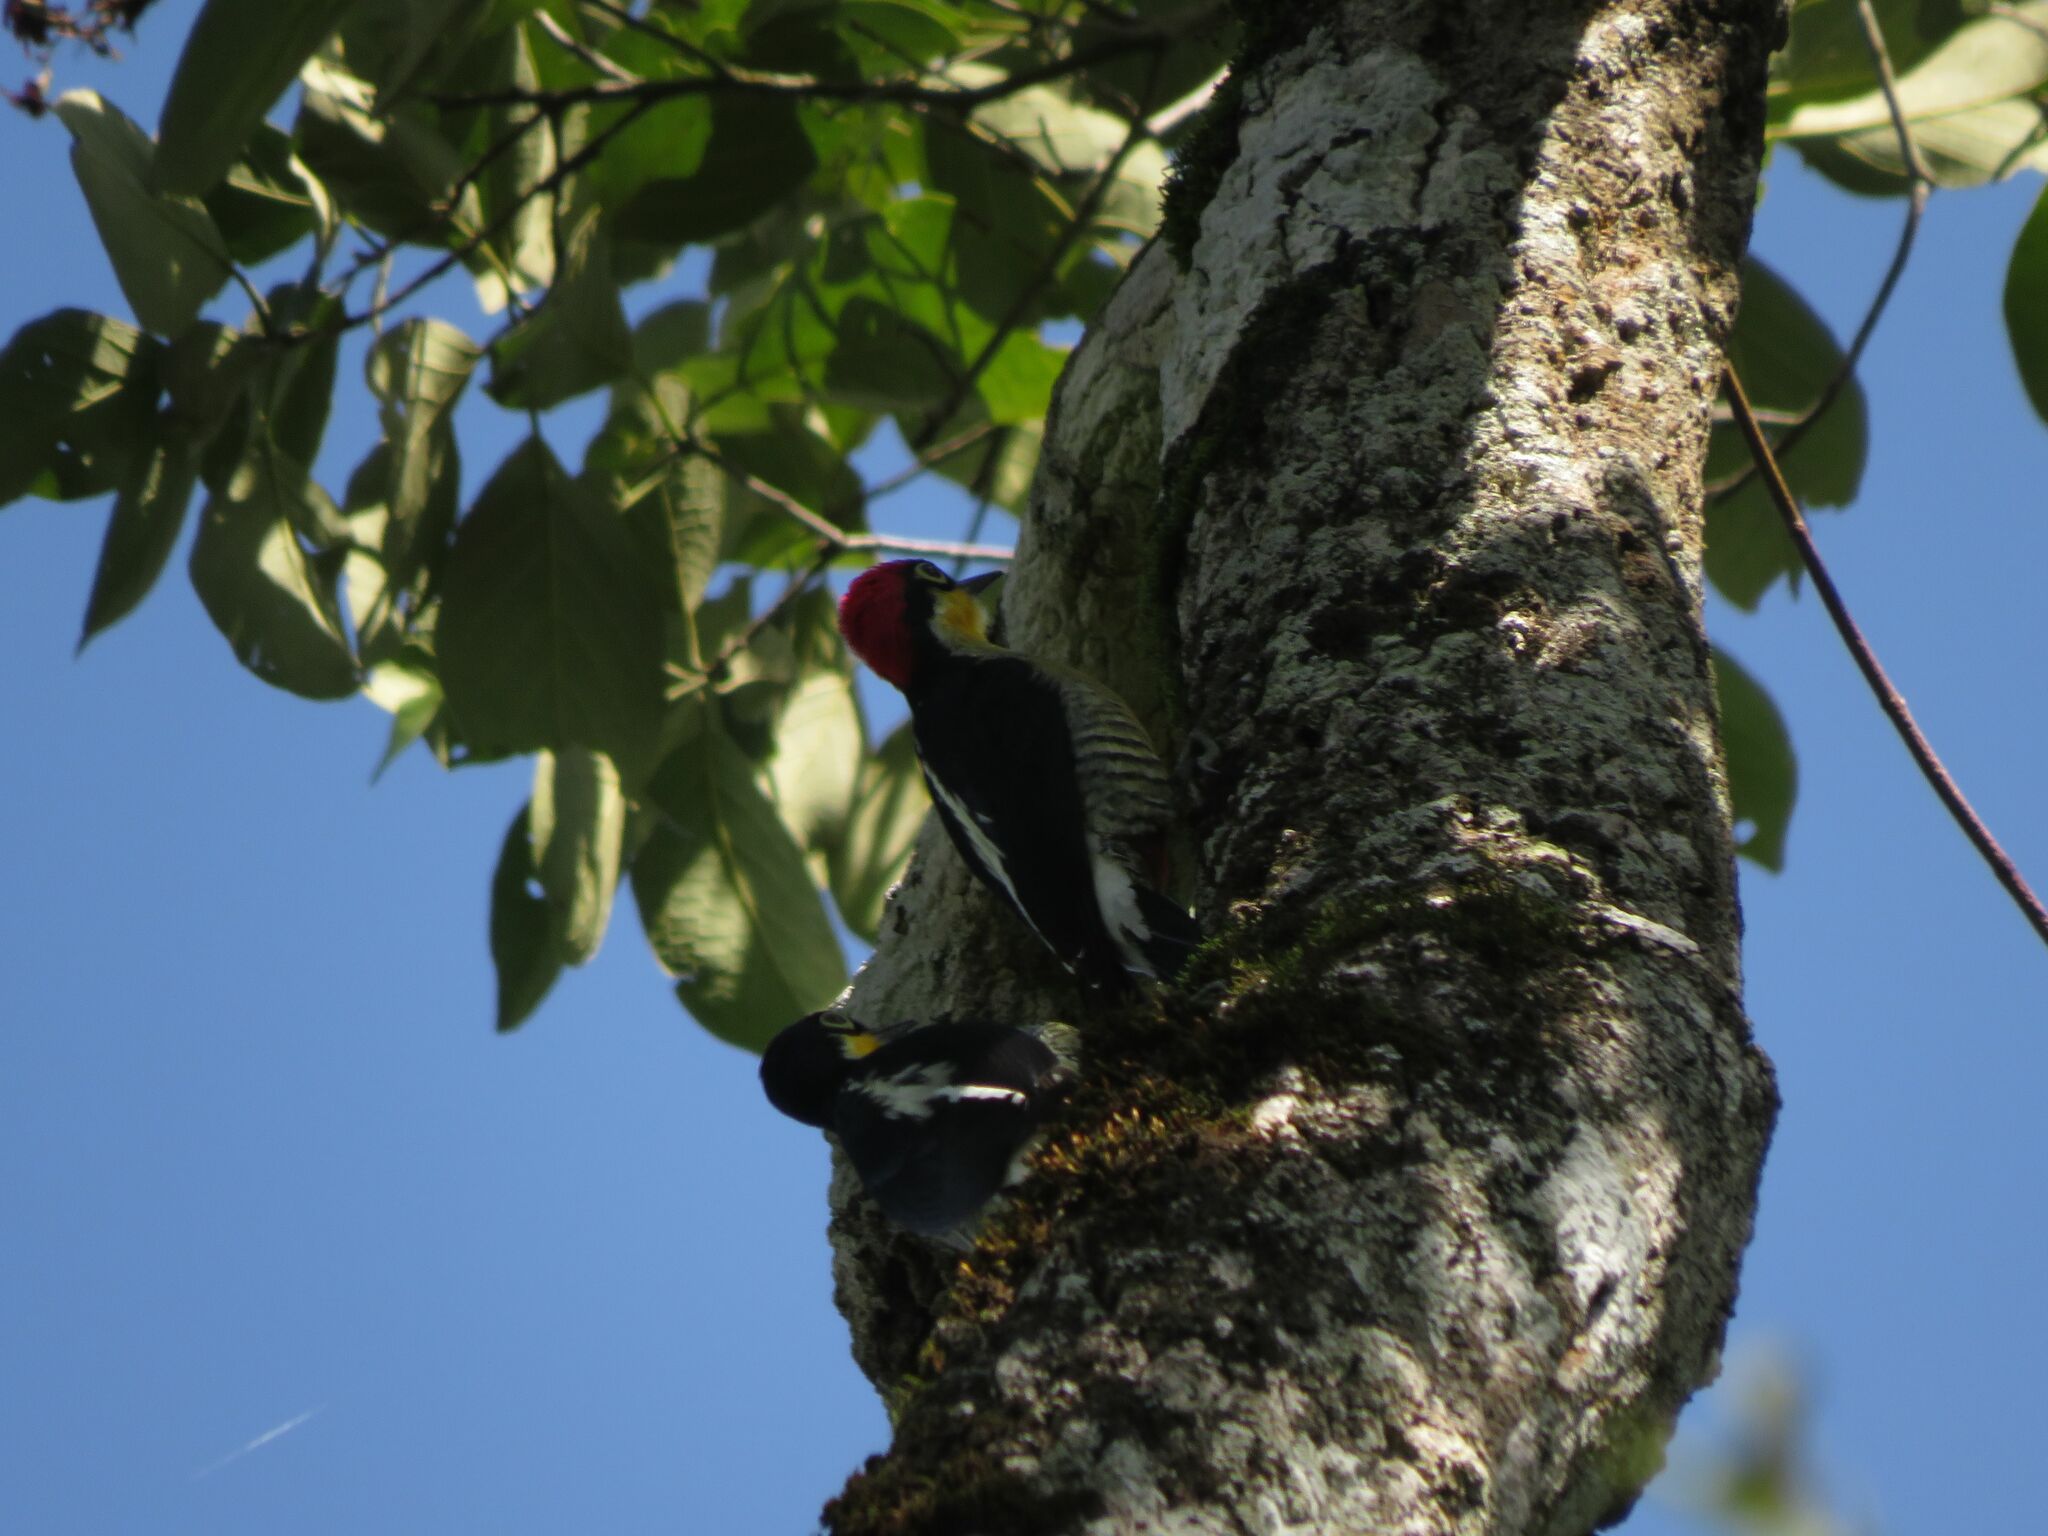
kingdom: Animalia
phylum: Chordata
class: Aves
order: Piciformes
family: Picidae
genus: Melanerpes
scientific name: Melanerpes flavifrons
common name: Yellow-fronted woodpecker
